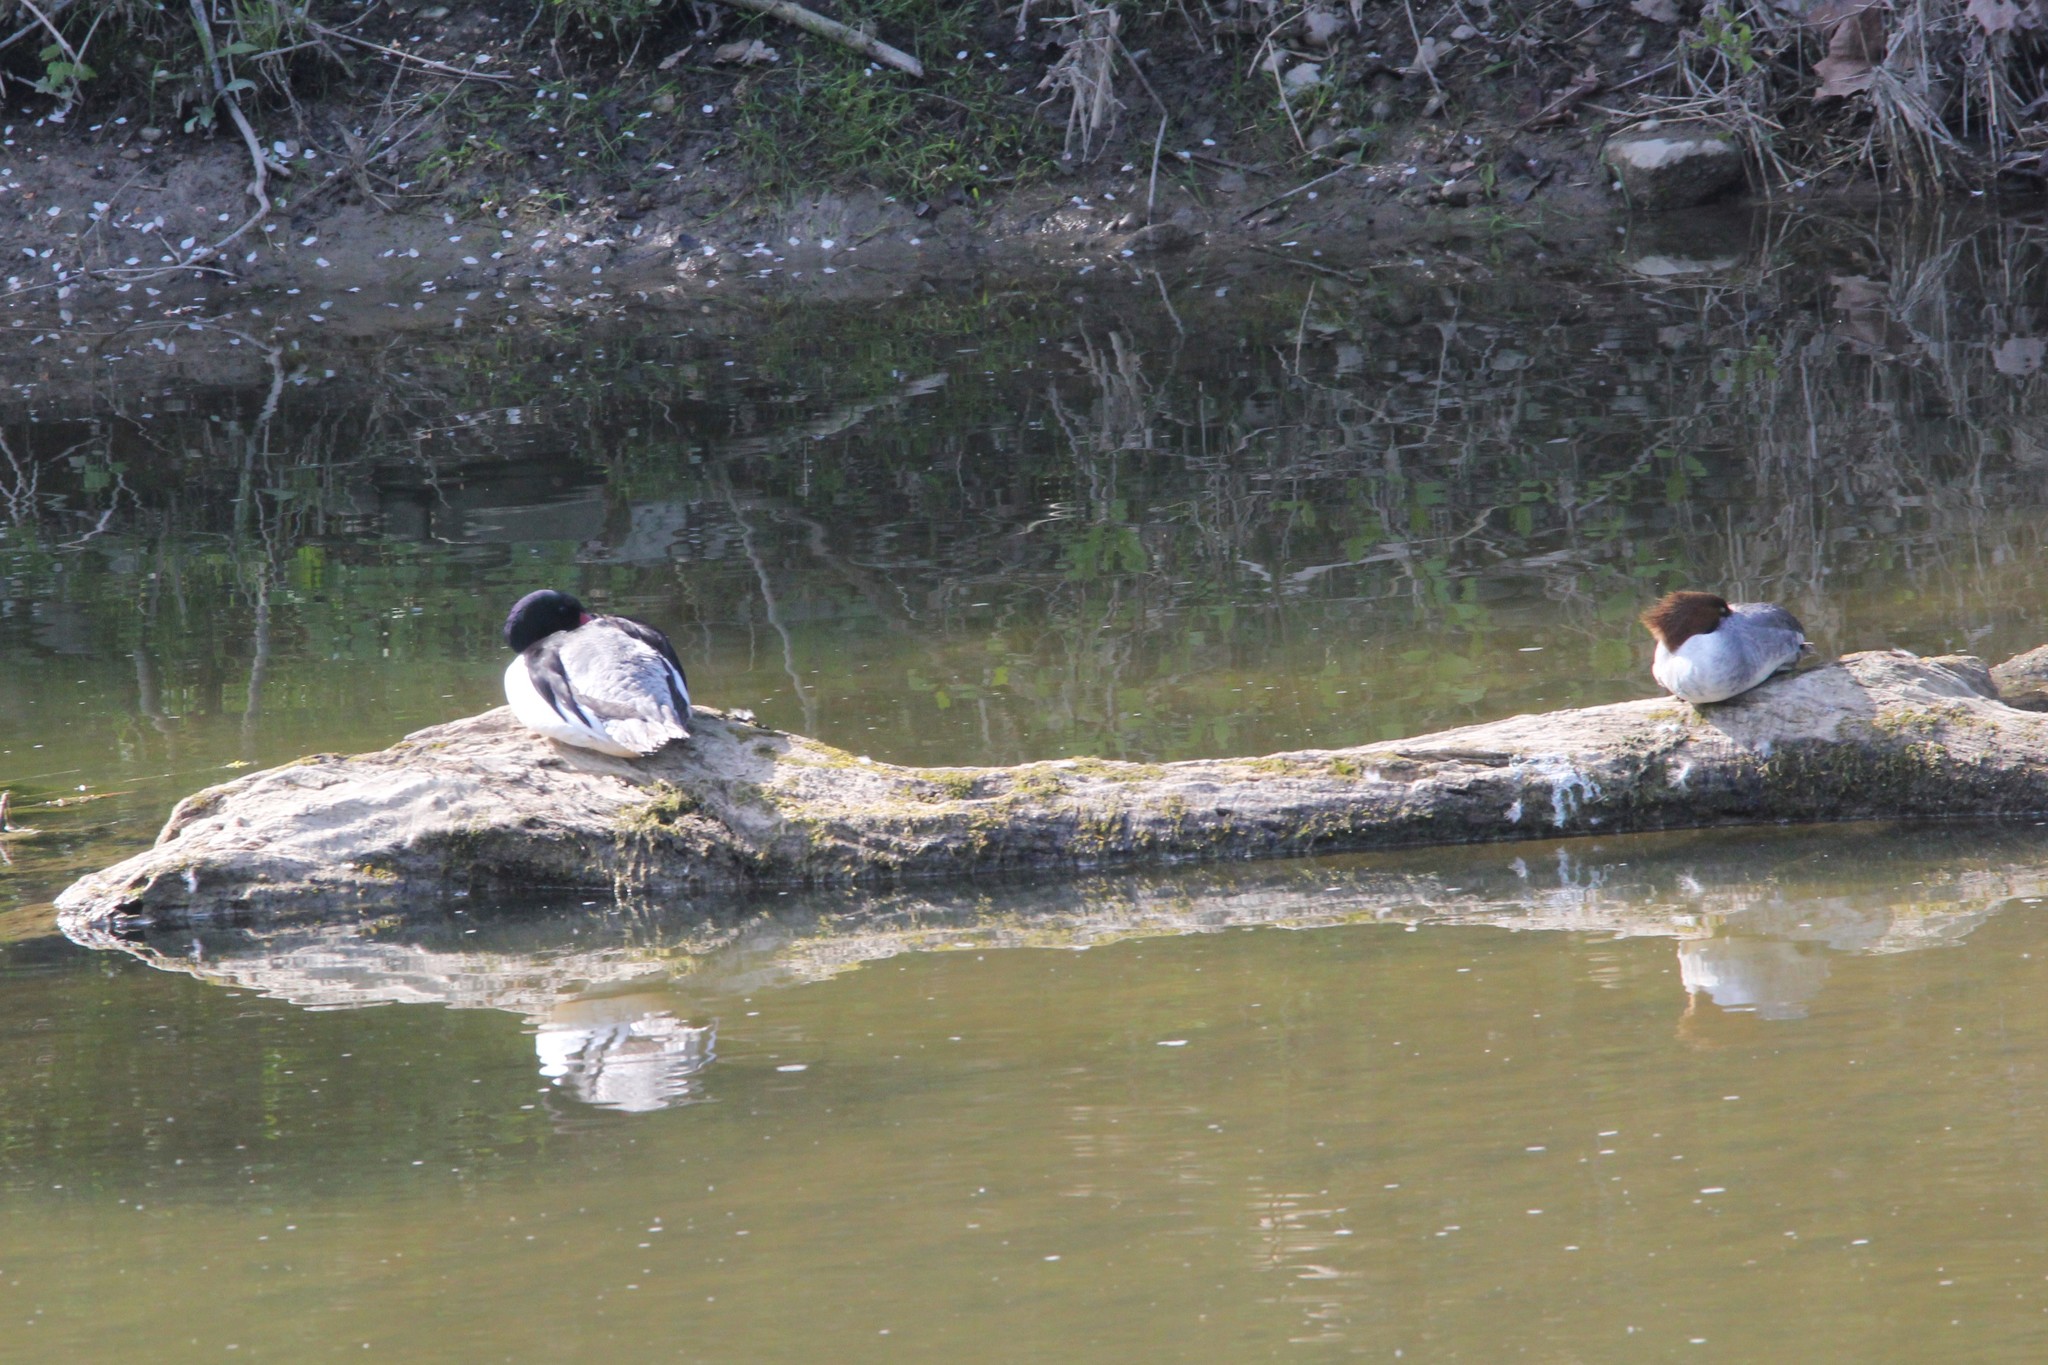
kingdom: Animalia
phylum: Chordata
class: Aves
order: Anseriformes
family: Anatidae
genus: Mergus
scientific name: Mergus merganser
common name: Common merganser
